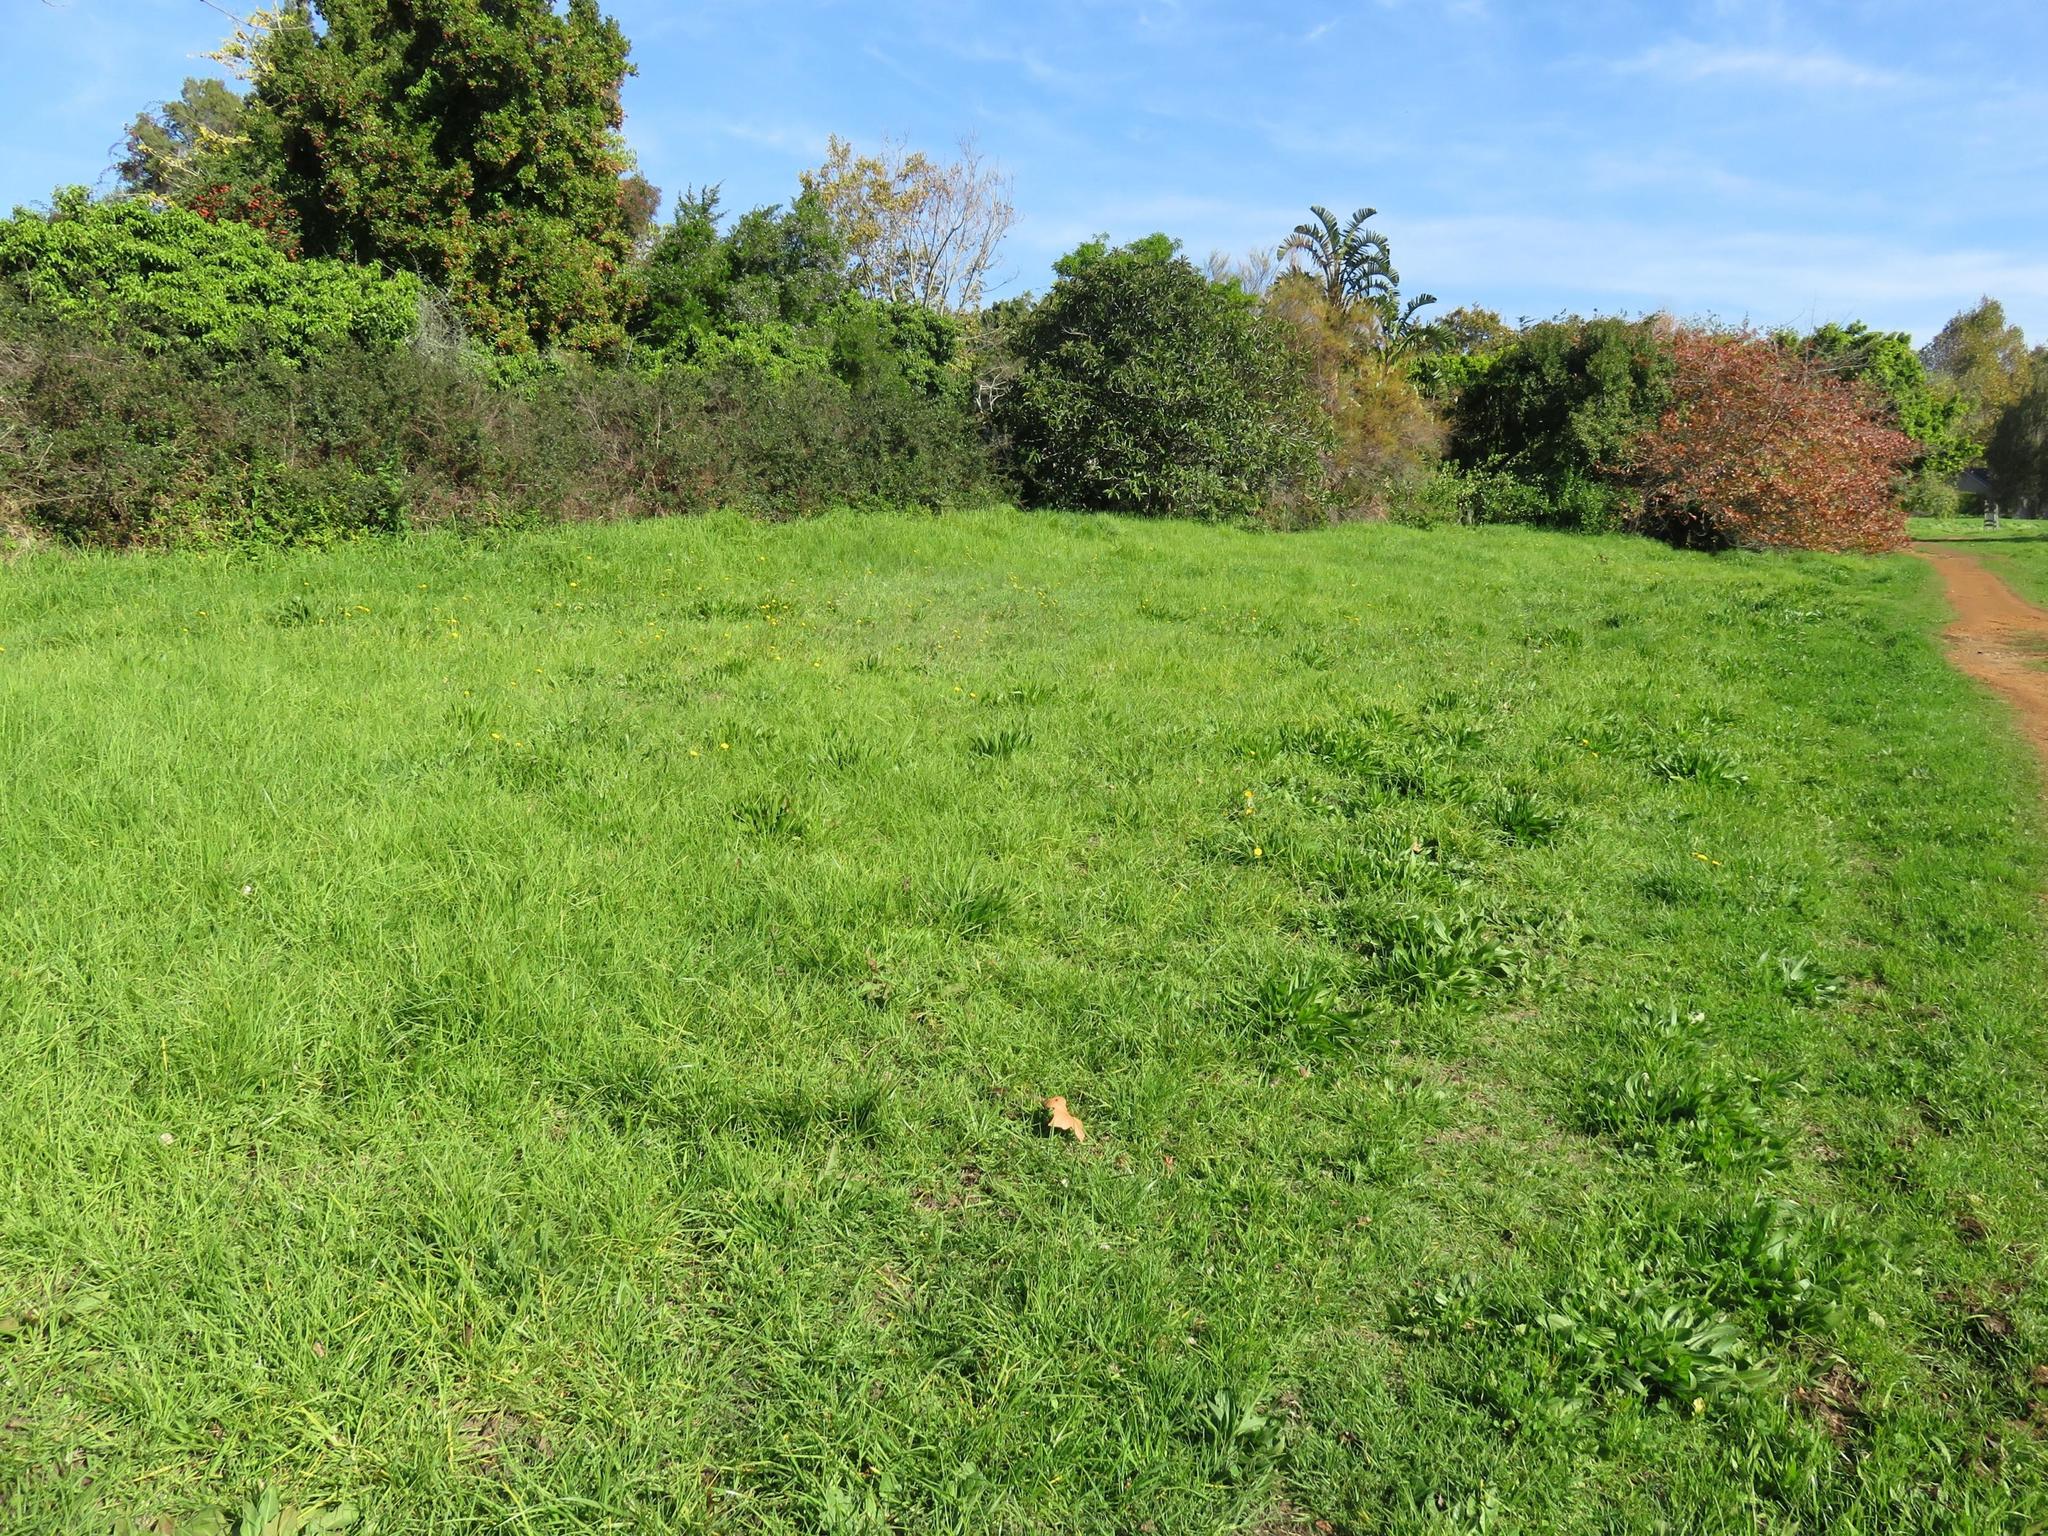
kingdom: Plantae
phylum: Tracheophyta
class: Magnoliopsida
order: Asterales
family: Asteraceae
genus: Hypochaeris
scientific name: Hypochaeris radicata
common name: Flatweed
